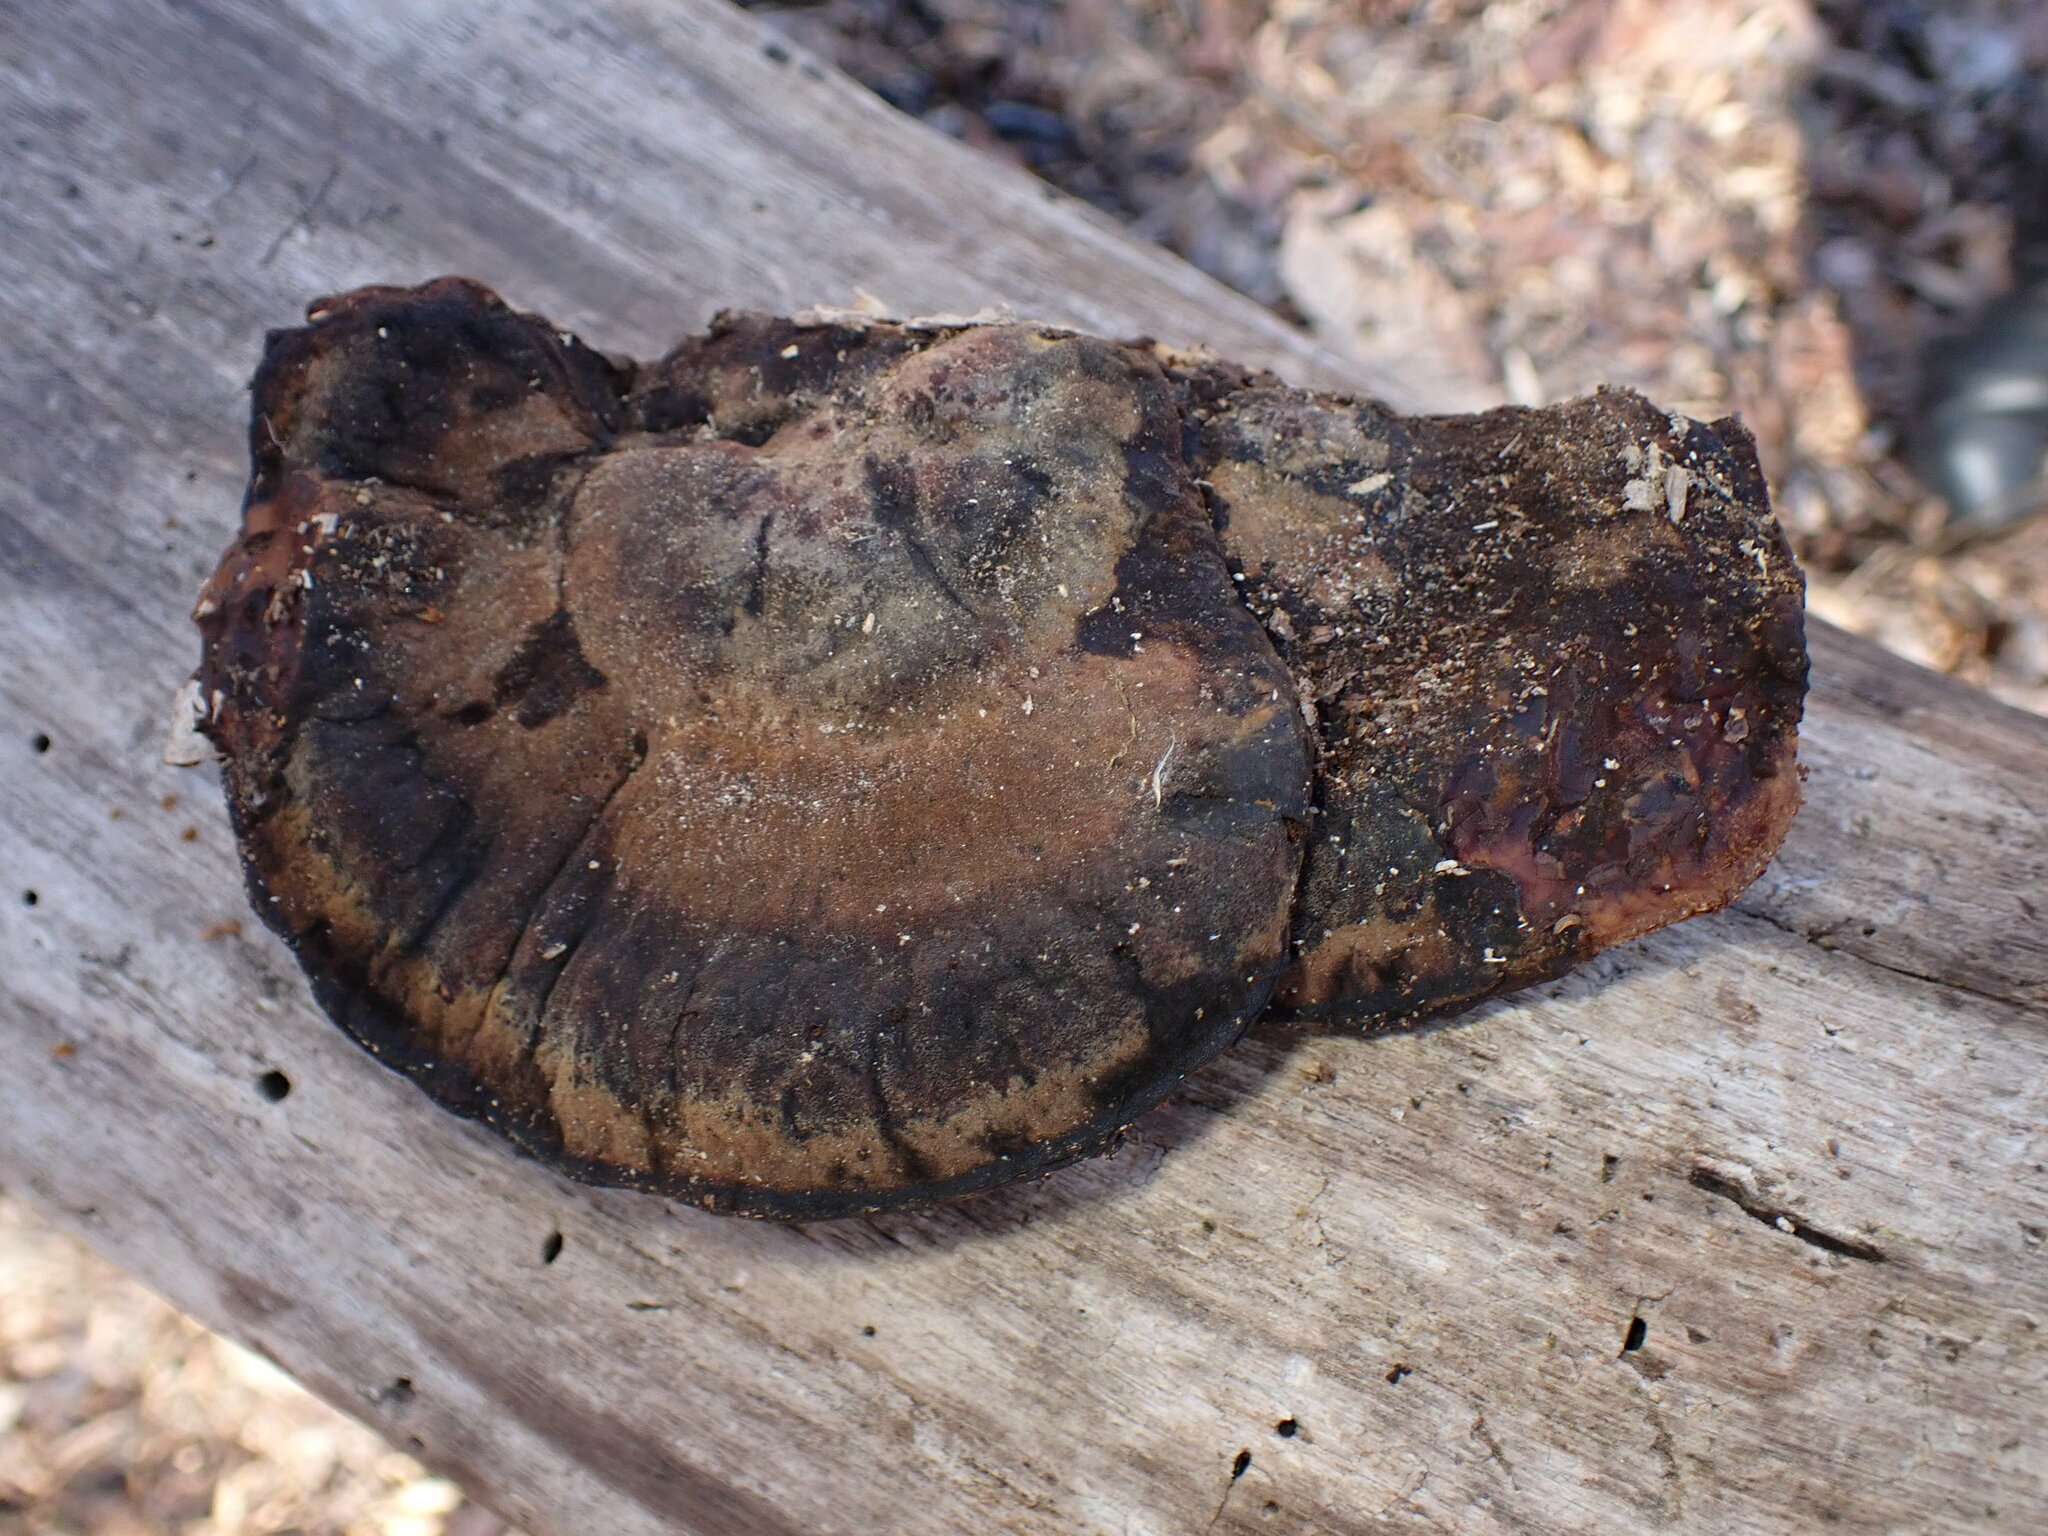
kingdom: Fungi
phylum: Basidiomycota
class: Agaricomycetes
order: Polyporales
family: Ischnodermataceae
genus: Ischnoderma
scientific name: Ischnoderma resinosum
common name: Resinous polypore
